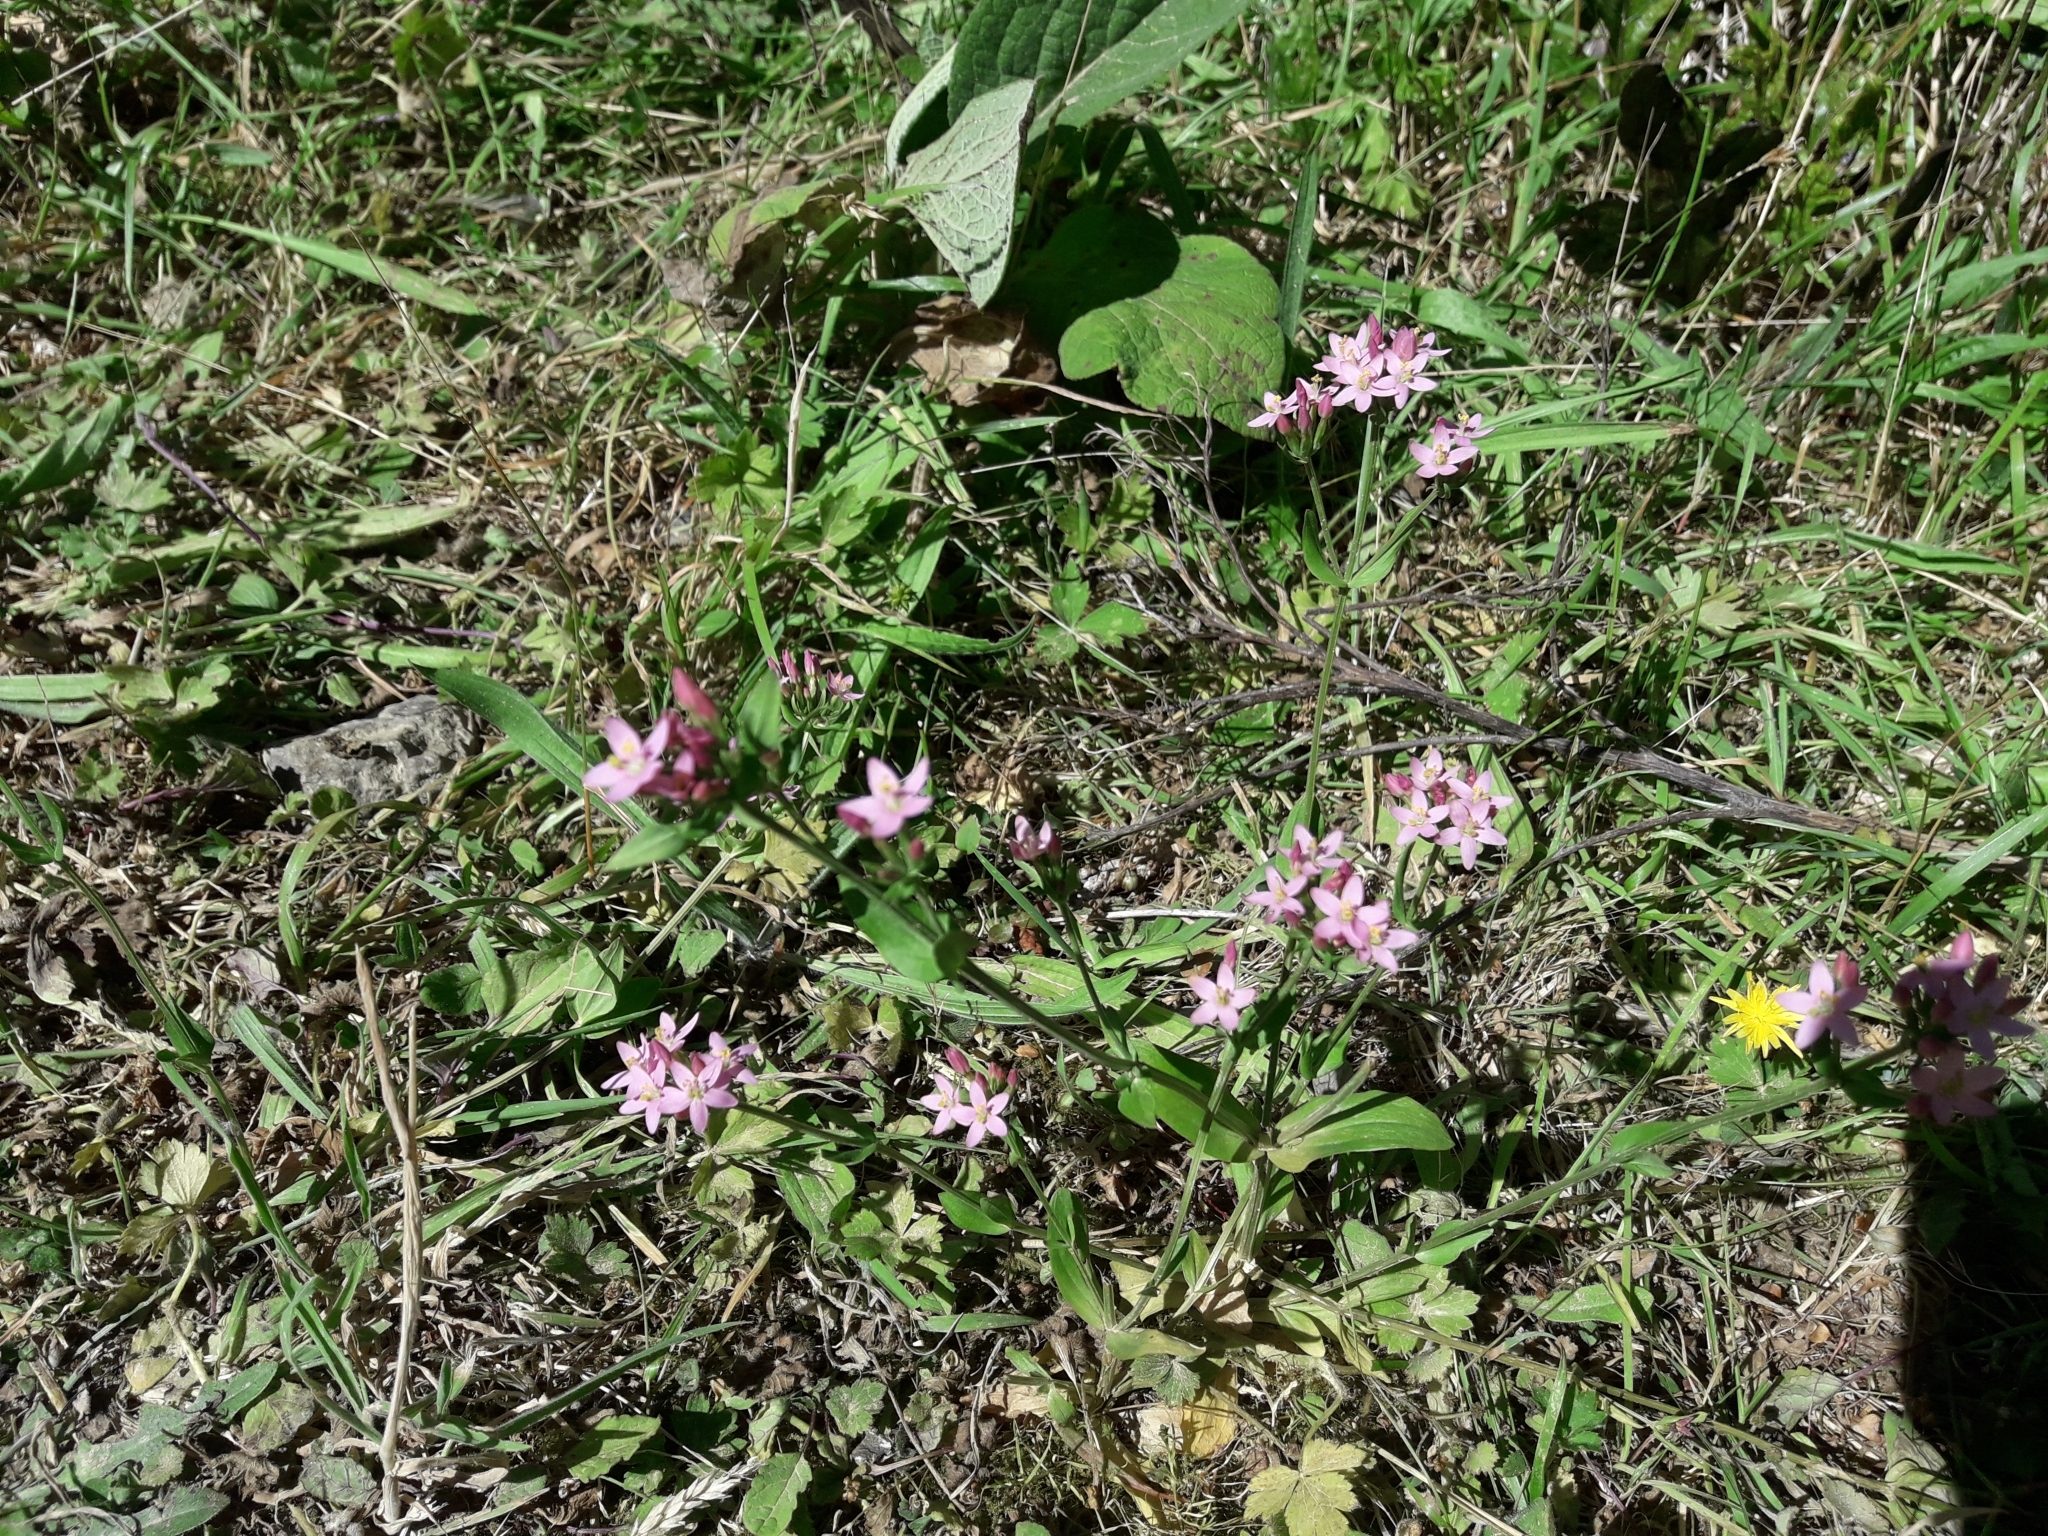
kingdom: Plantae
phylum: Tracheophyta
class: Magnoliopsida
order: Gentianales
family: Gentianaceae
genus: Centaurium
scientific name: Centaurium erythraea
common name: Common centaury
